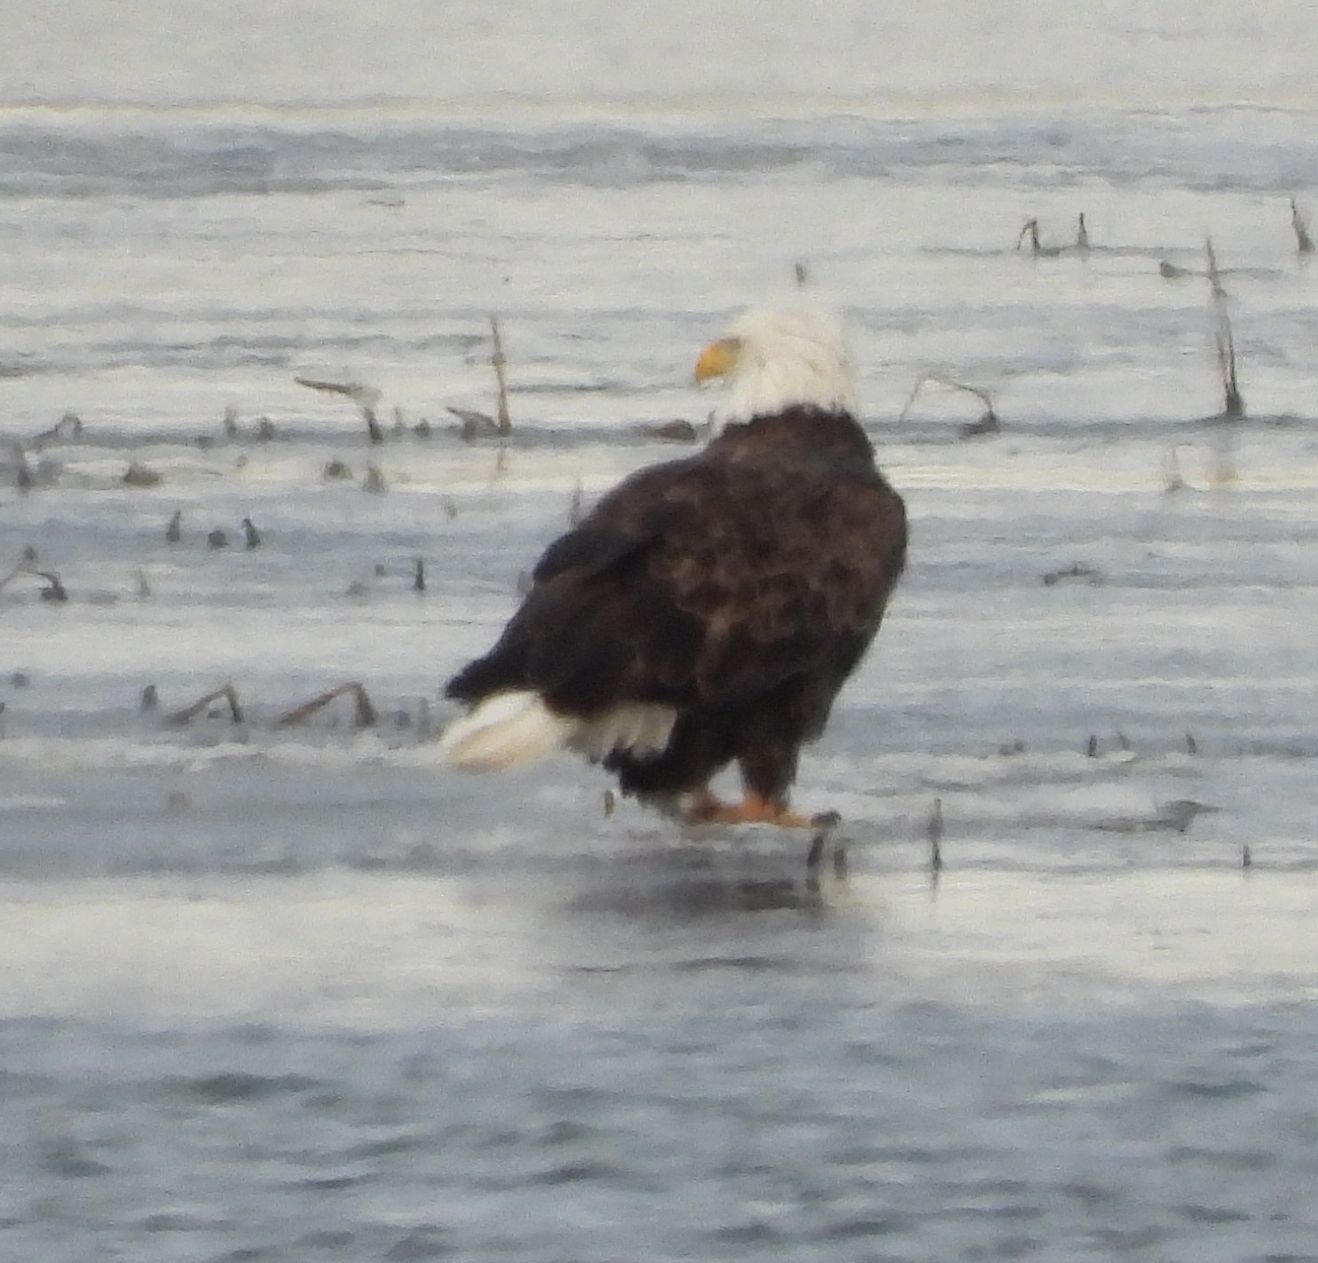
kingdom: Animalia
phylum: Chordata
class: Aves
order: Accipitriformes
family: Accipitridae
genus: Haliaeetus
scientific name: Haliaeetus leucocephalus
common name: Bald eagle
